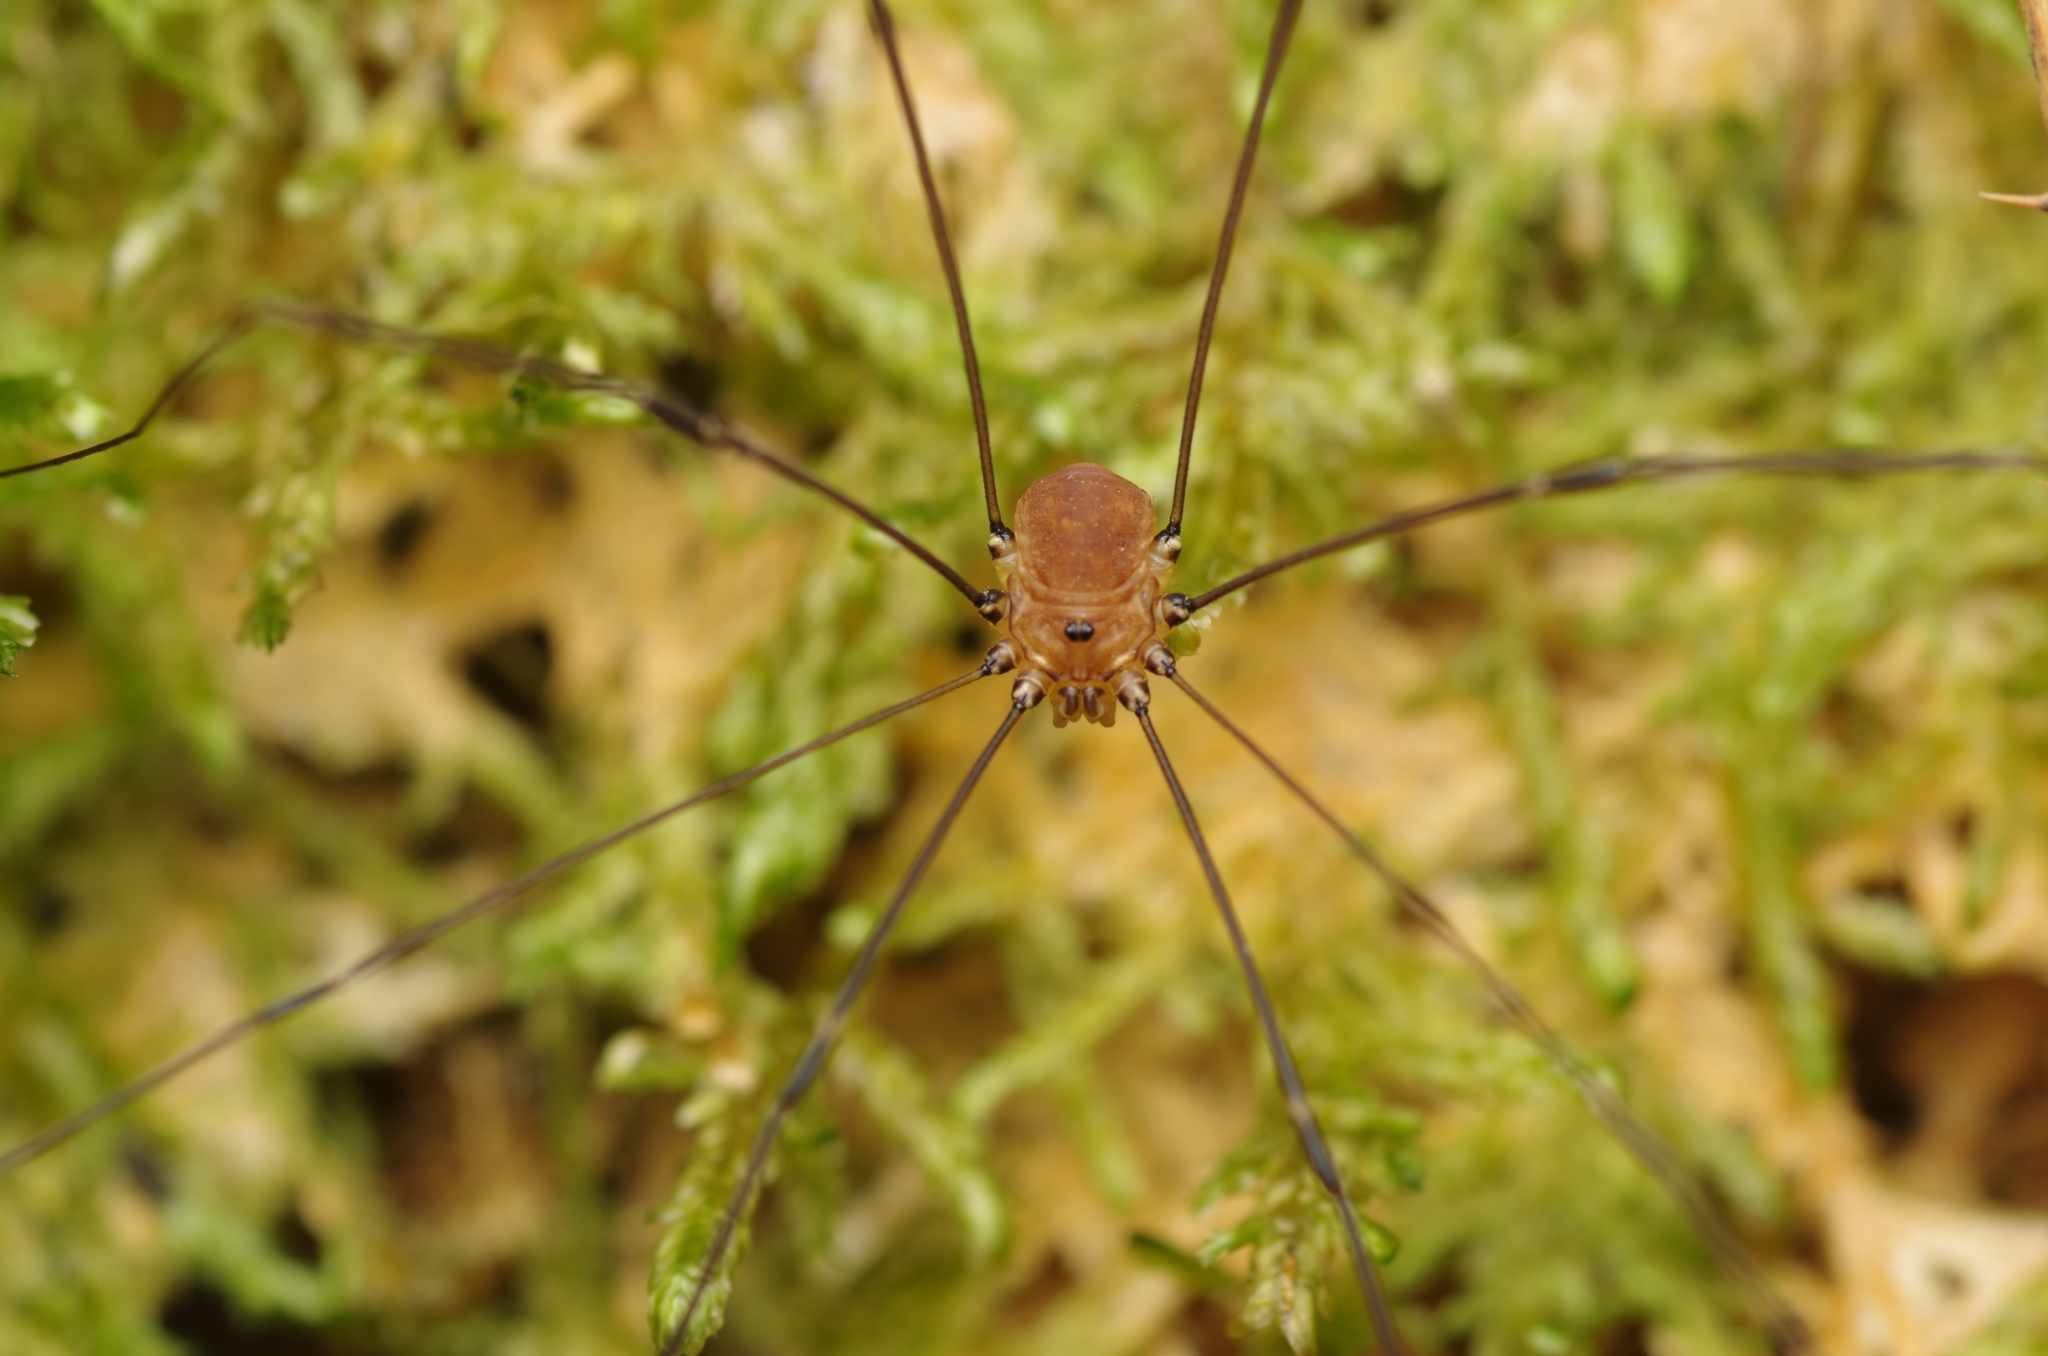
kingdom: Animalia
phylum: Arthropoda
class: Arachnida
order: Opiliones
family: Sclerosomatidae
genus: Leiobunum
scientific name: Leiobunum rotundum
